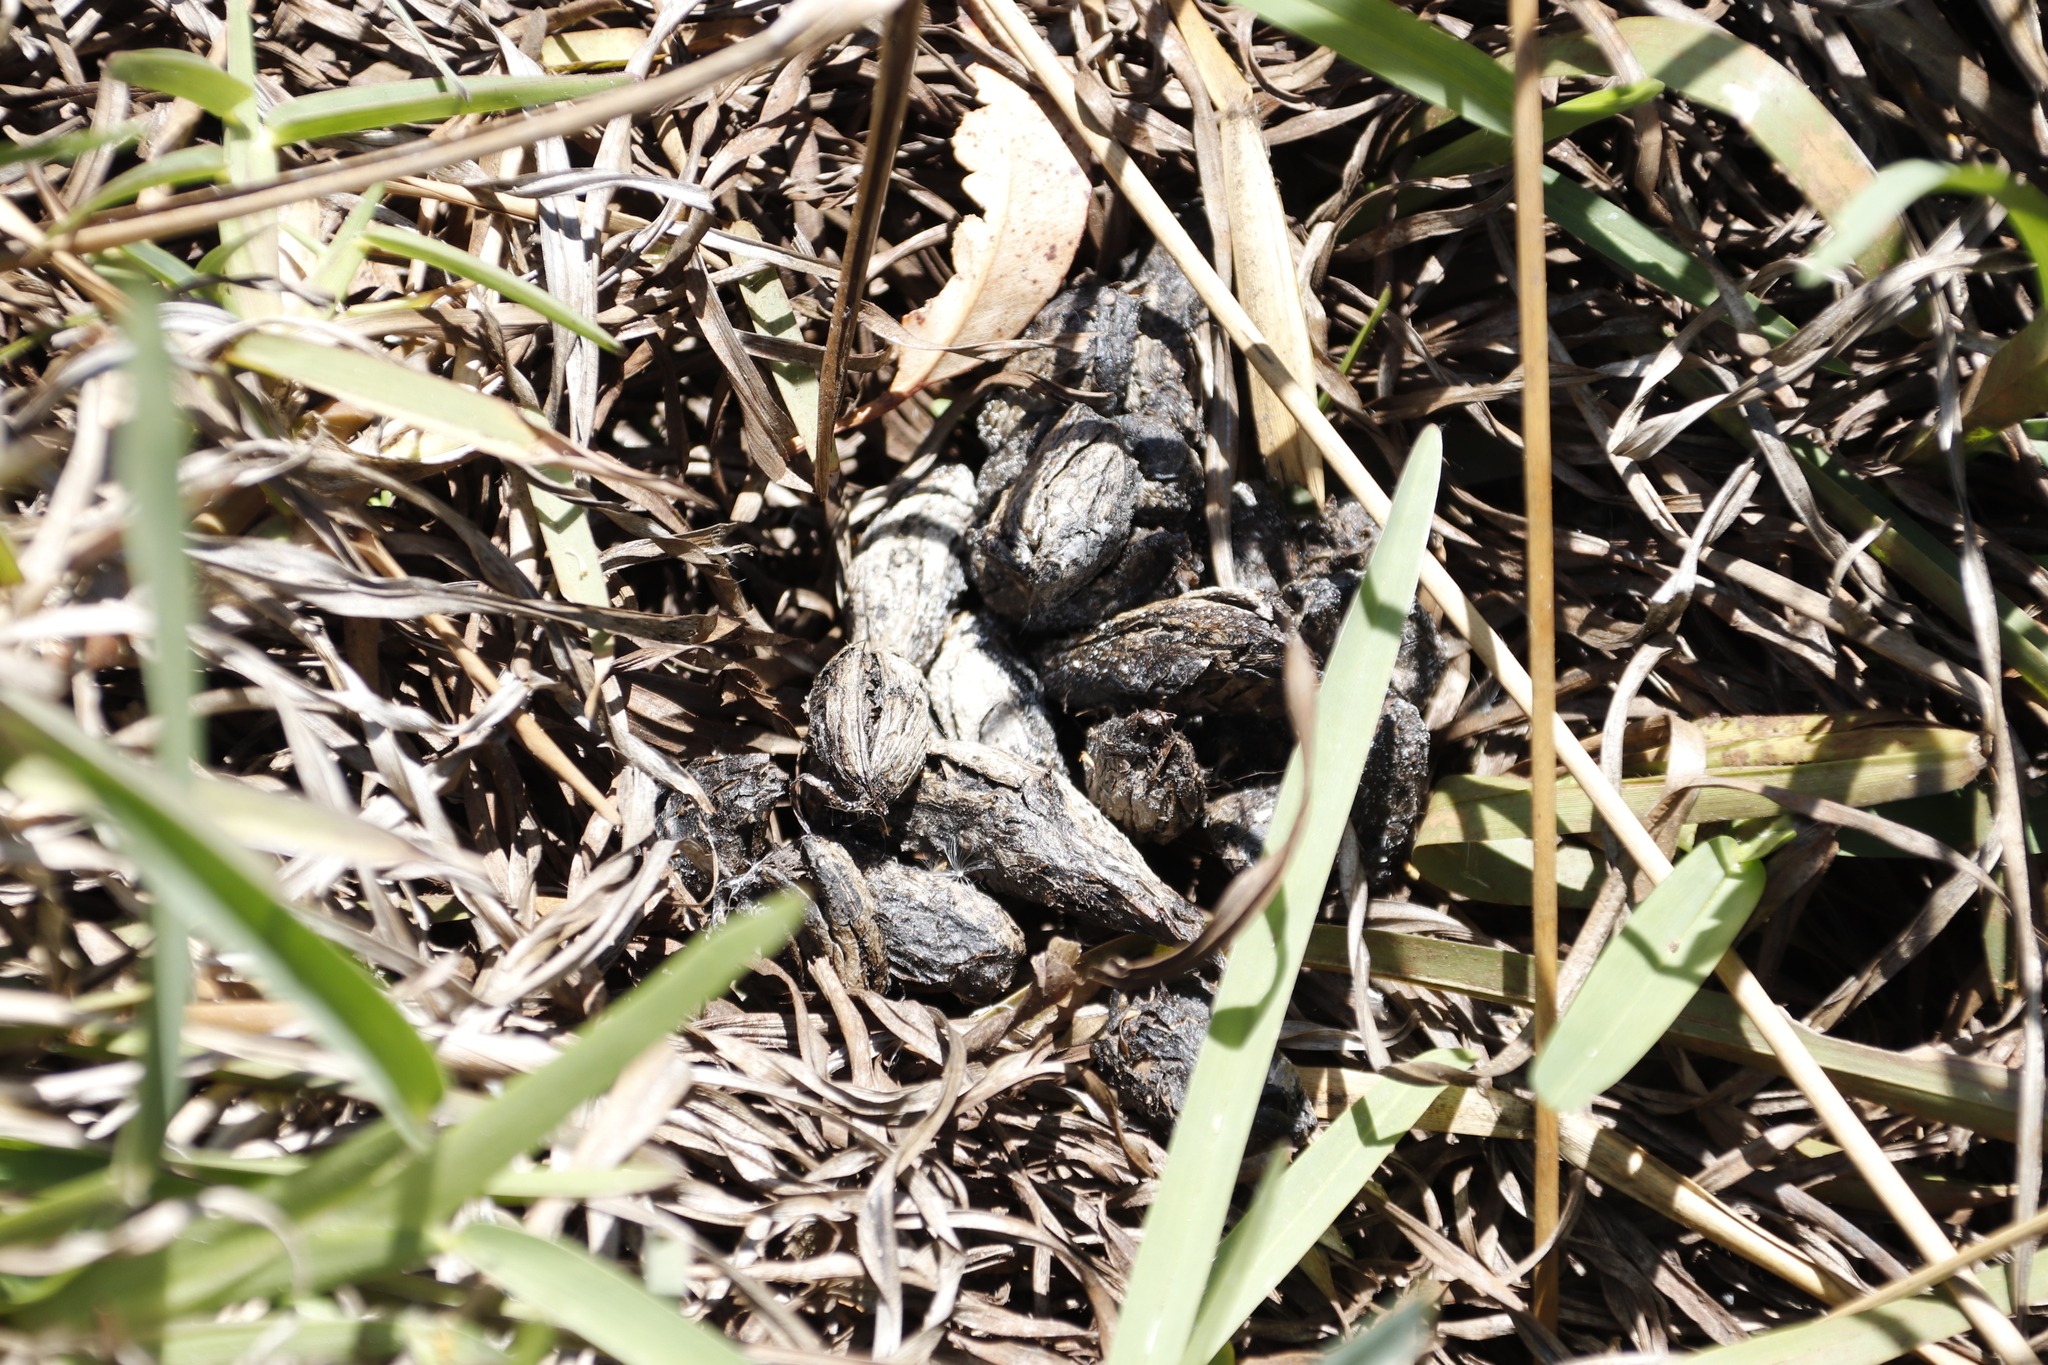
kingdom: Animalia
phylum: Chordata
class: Mammalia
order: Rodentia
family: Hystricidae
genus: Hystrix
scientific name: Hystrix africaeaustralis
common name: Cape porcupine
